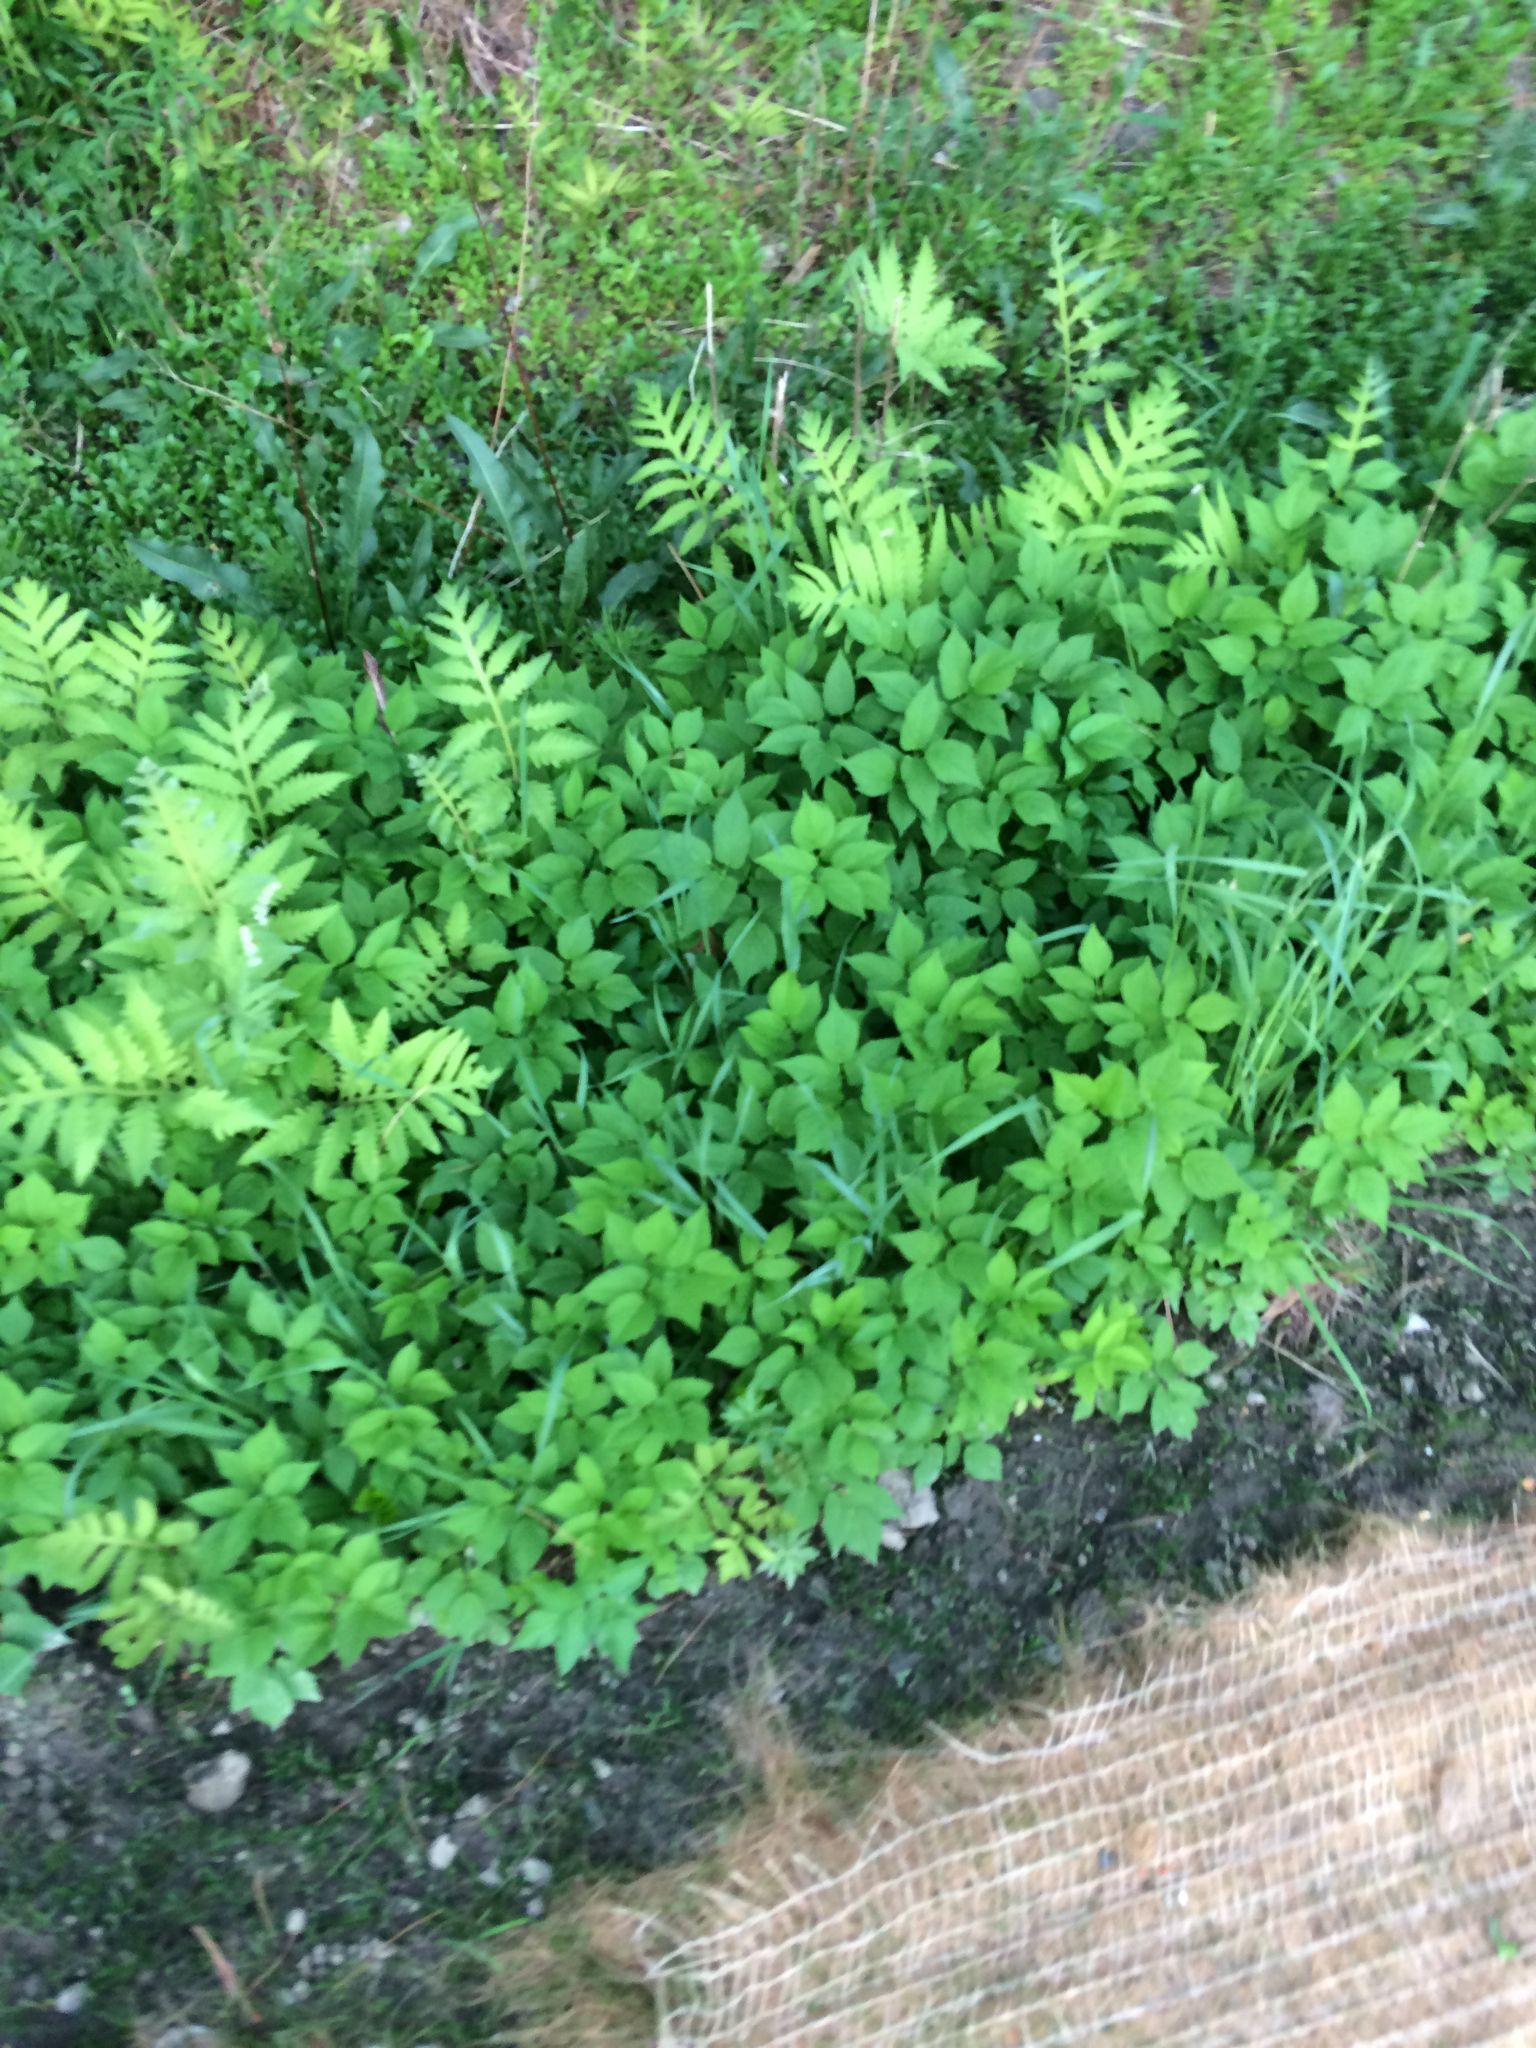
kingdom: Plantae
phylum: Tracheophyta
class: Magnoliopsida
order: Apiales
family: Apiaceae
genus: Aegopodium
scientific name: Aegopodium podagraria
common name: Ground-elder
